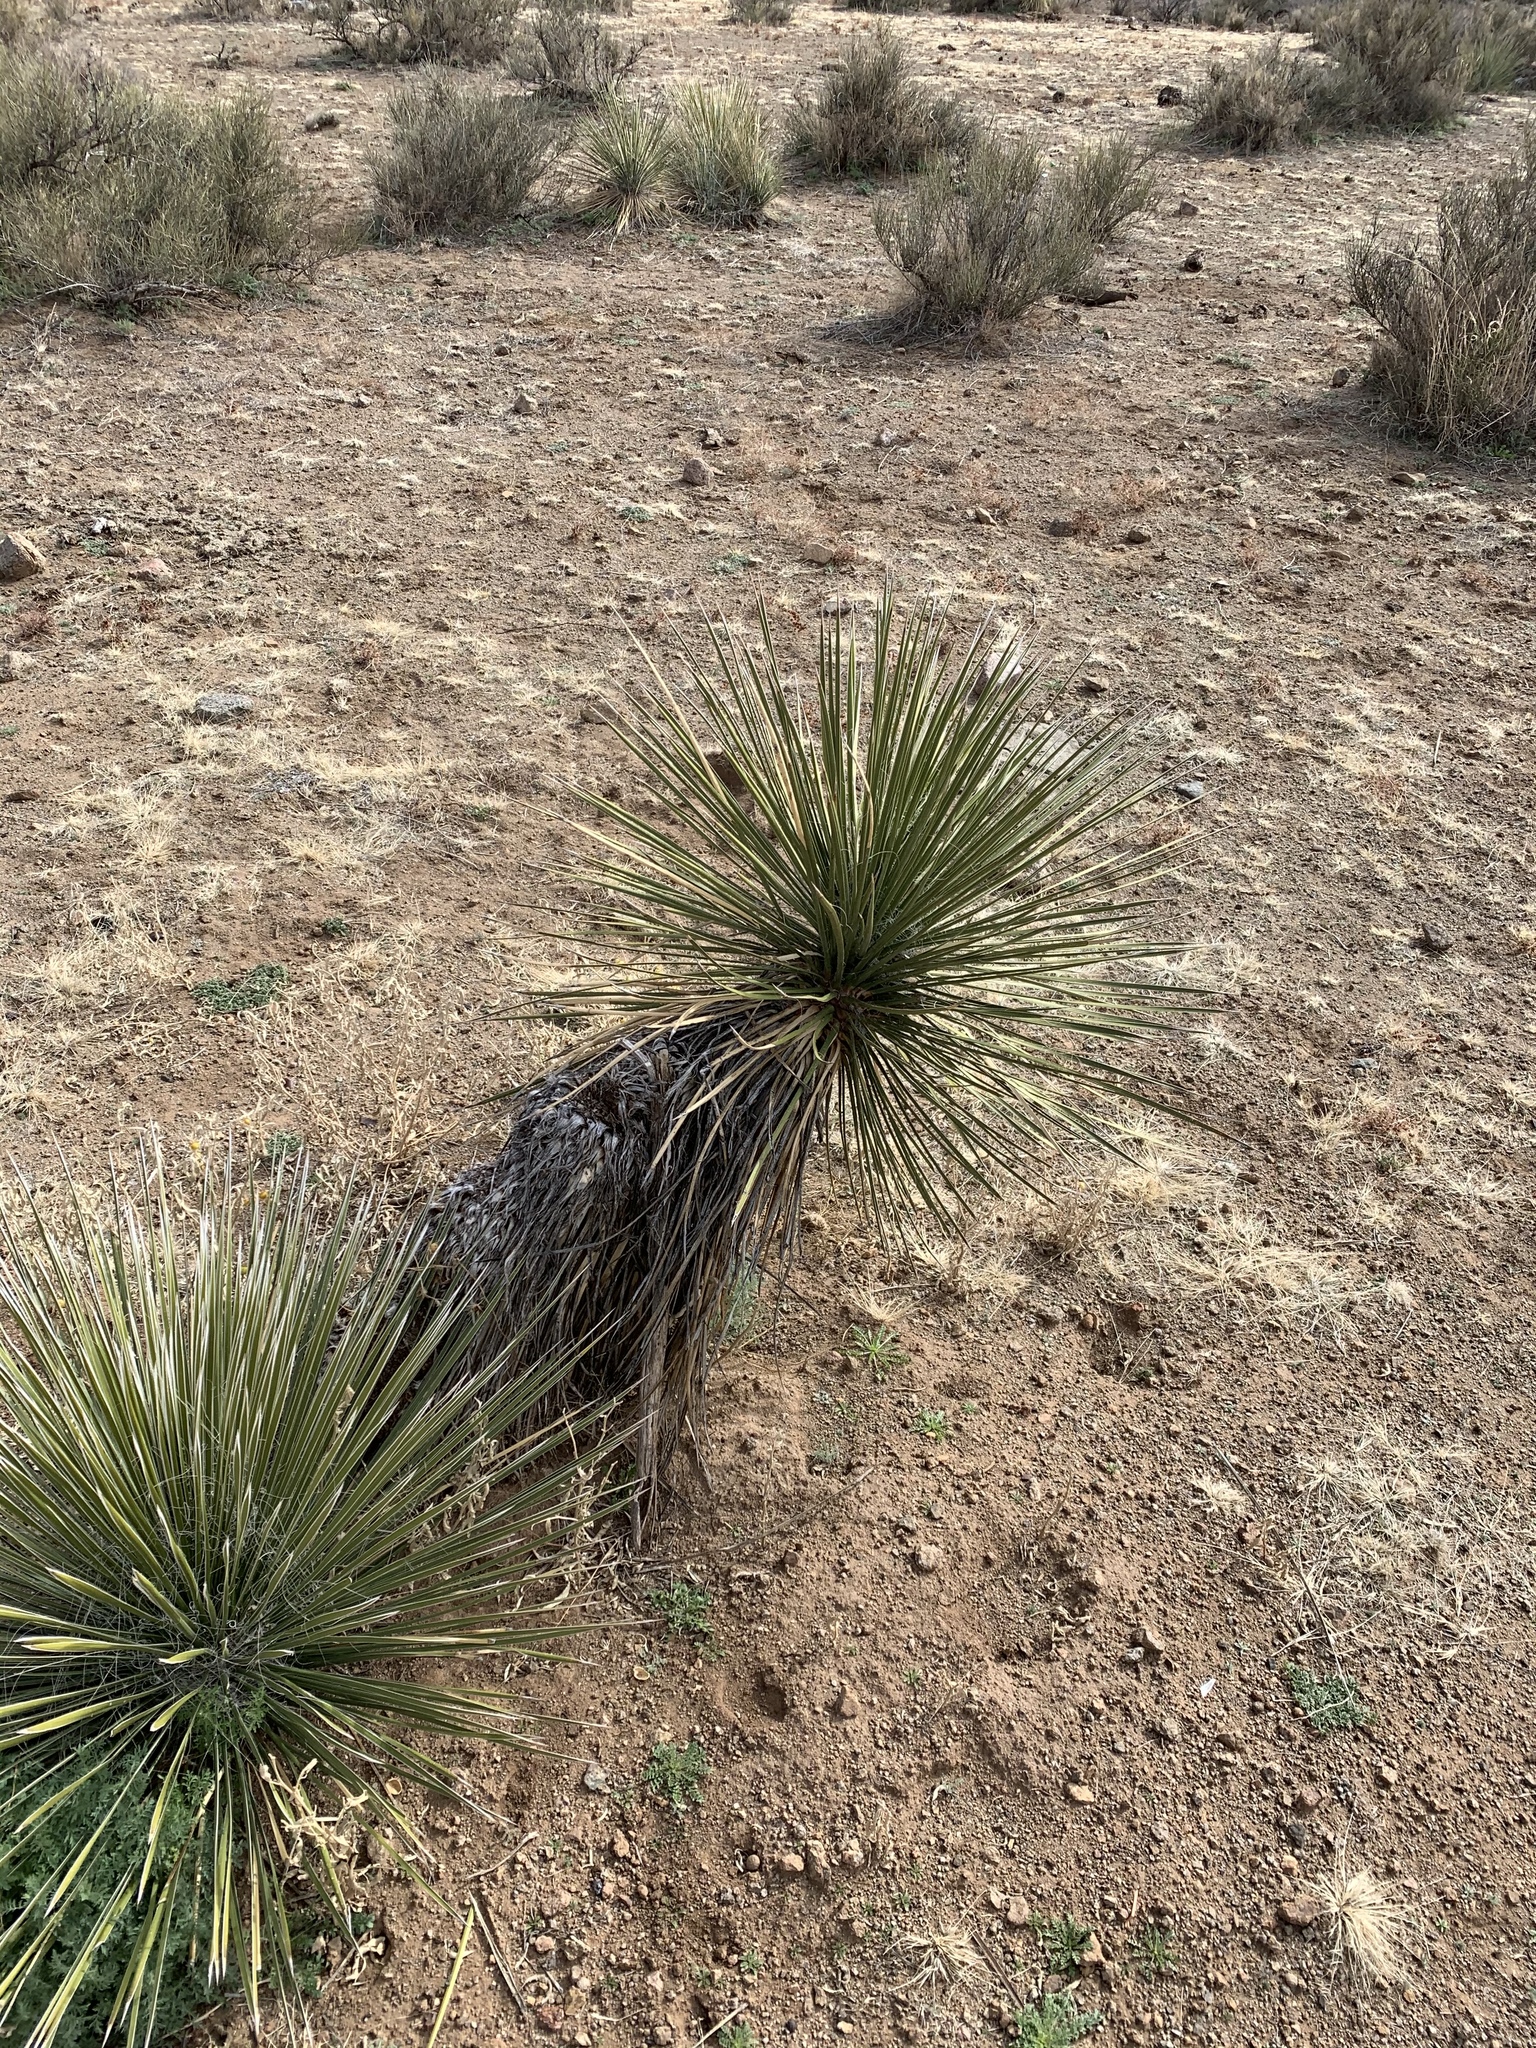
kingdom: Plantae
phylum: Tracheophyta
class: Liliopsida
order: Asparagales
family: Asparagaceae
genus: Yucca
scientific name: Yucca elata
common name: Palmella
